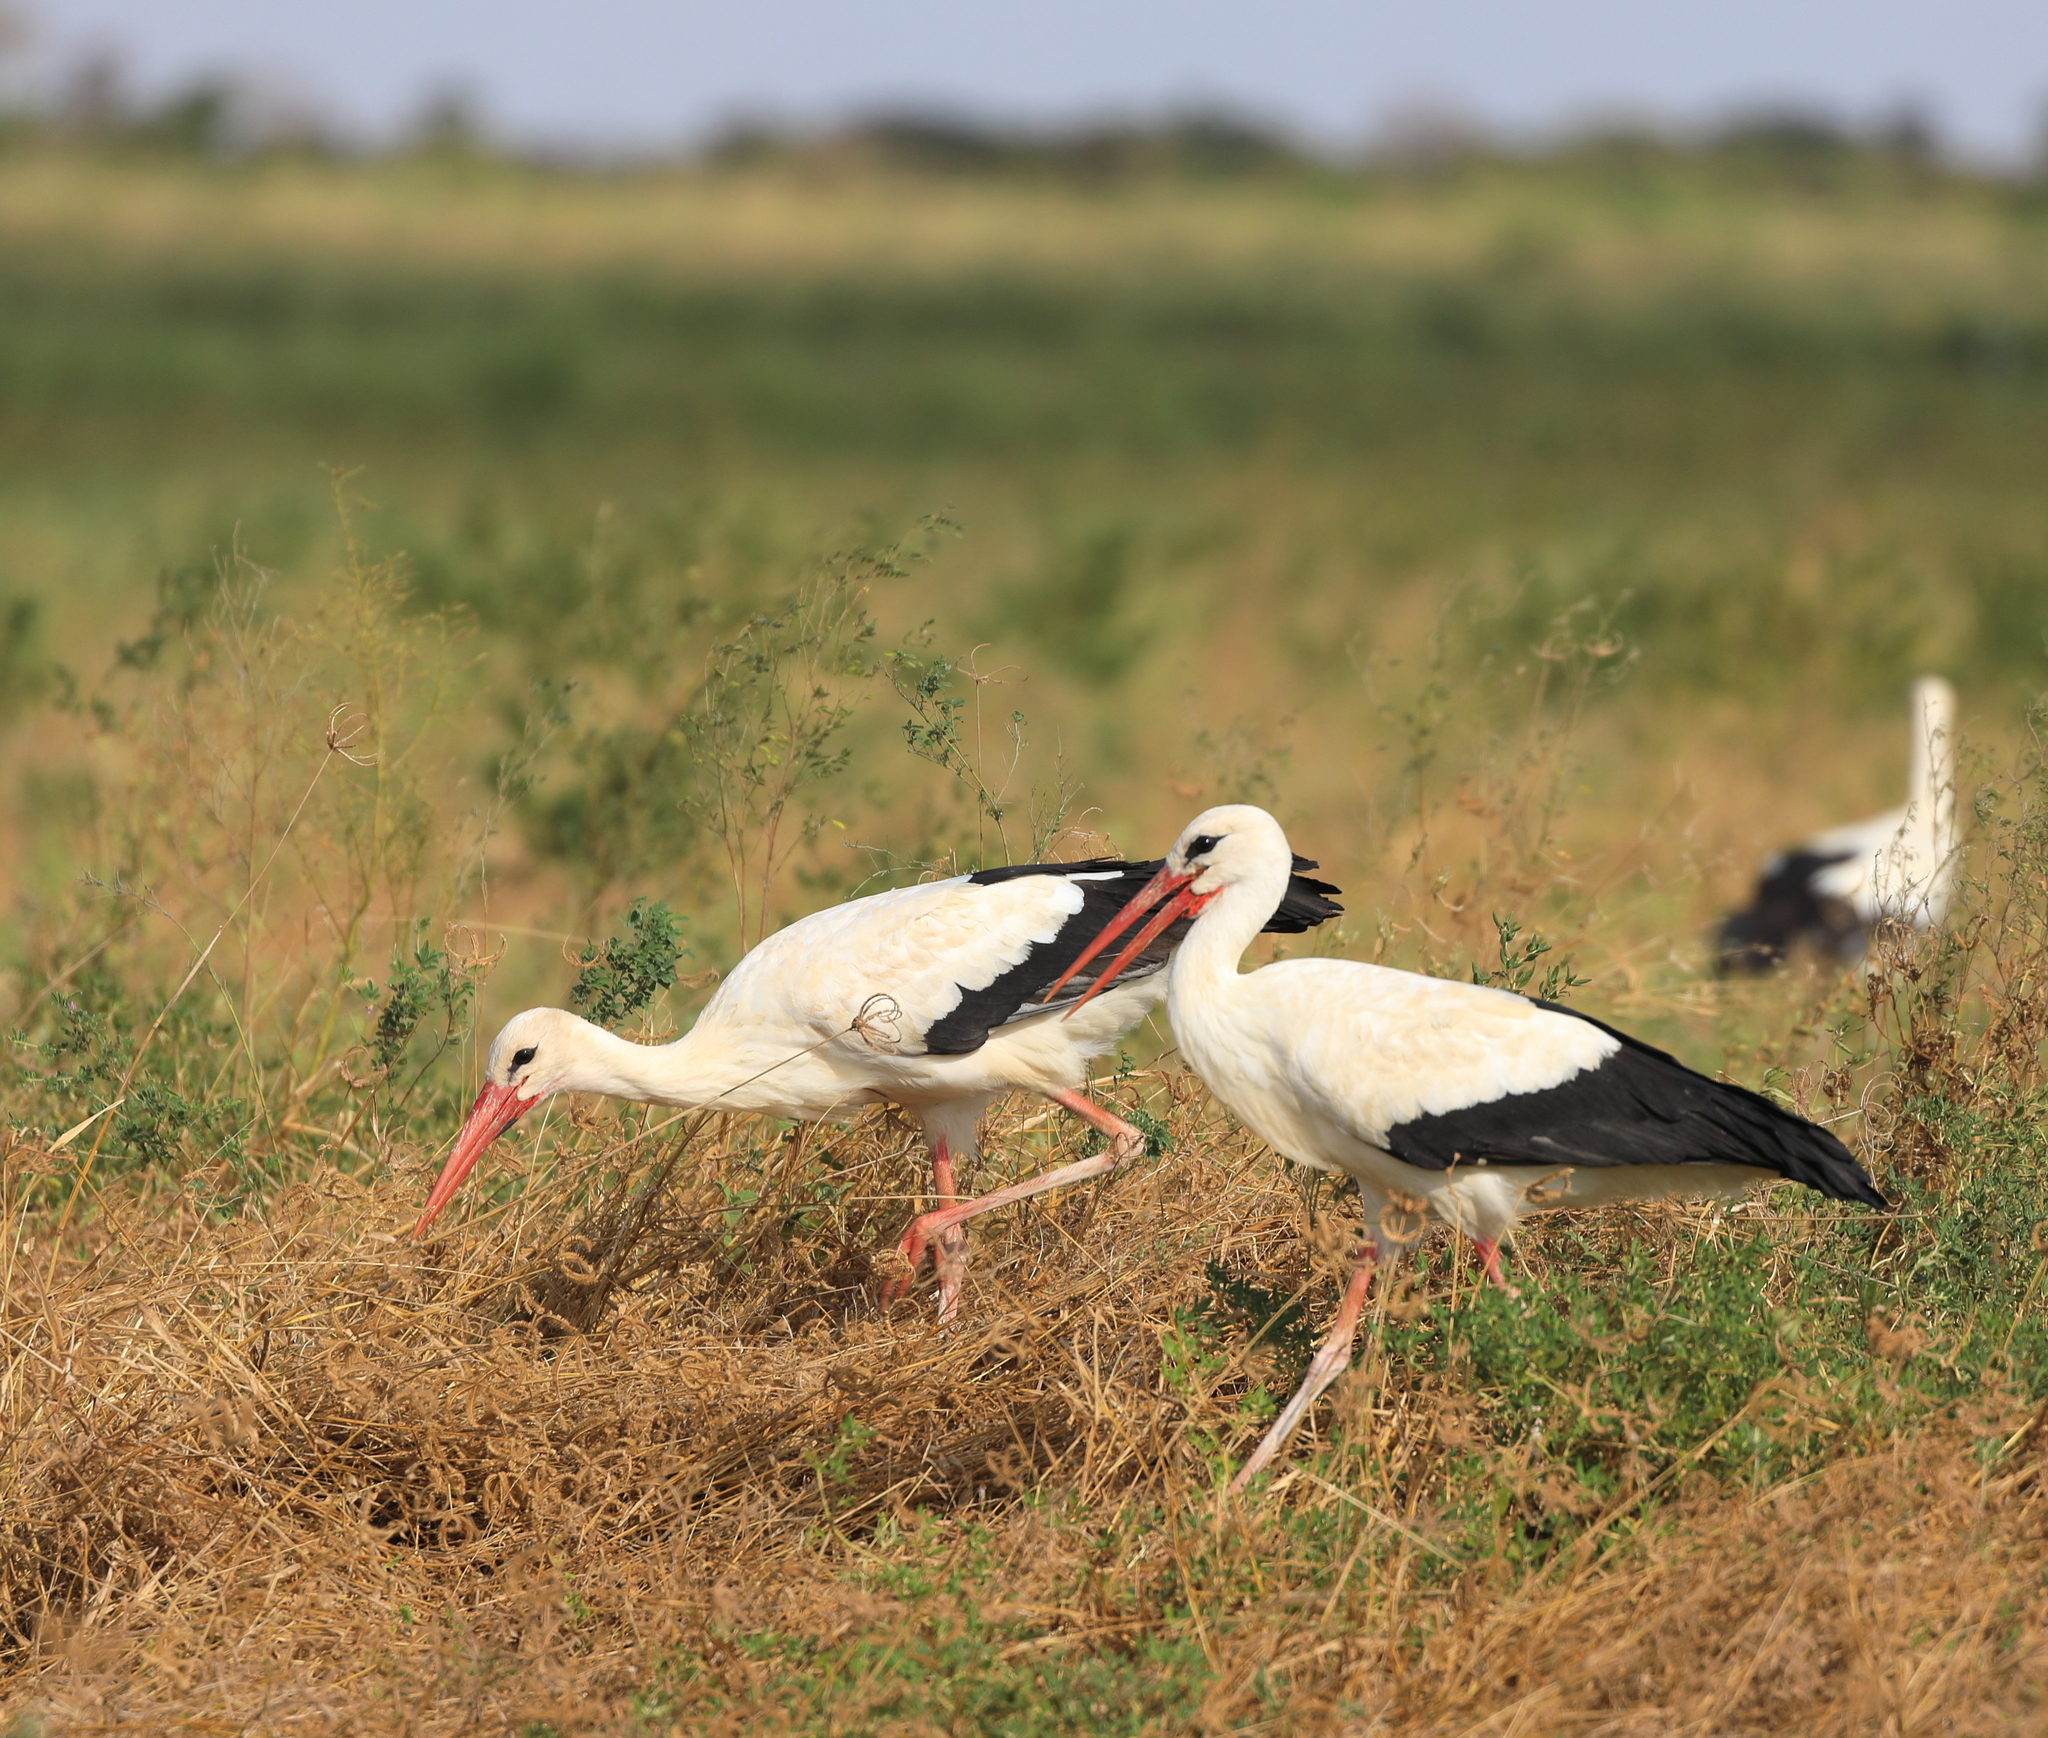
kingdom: Animalia
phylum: Chordata
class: Aves
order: Ciconiiformes
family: Ciconiidae
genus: Ciconia
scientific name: Ciconia ciconia
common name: White stork
